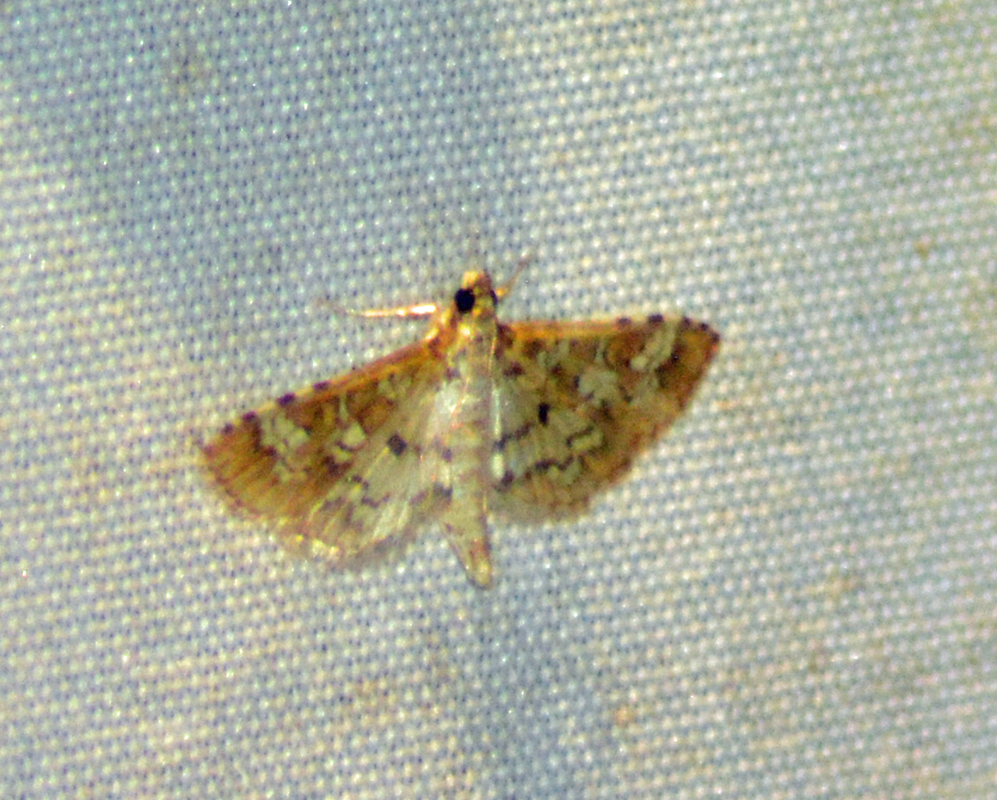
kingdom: Animalia
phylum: Arthropoda
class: Insecta
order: Lepidoptera
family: Crambidae
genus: Samea
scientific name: Samea multiplicalis
